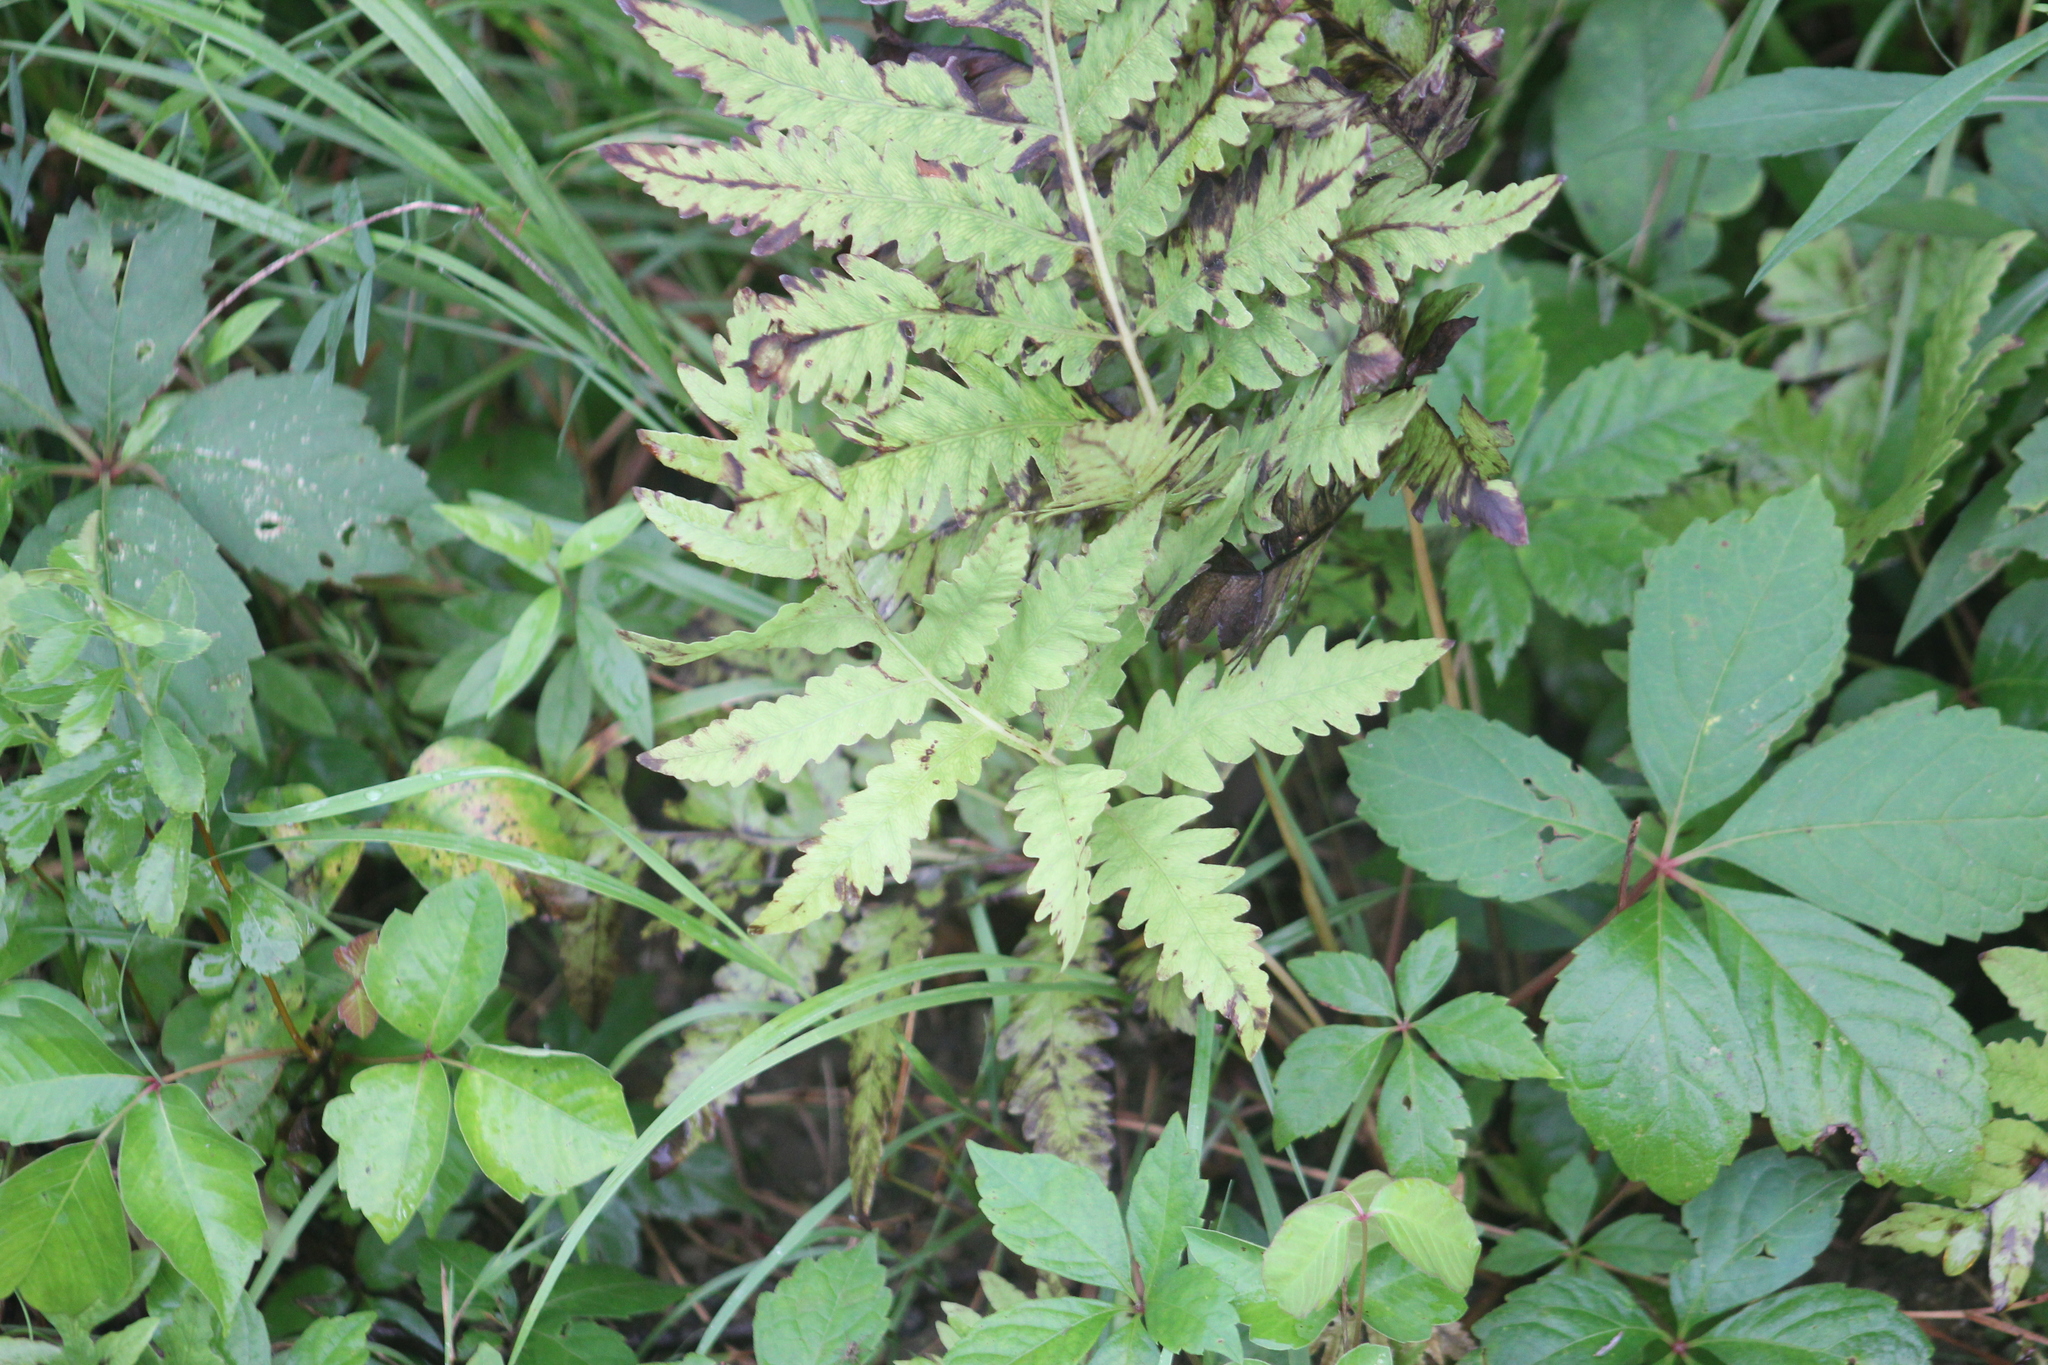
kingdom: Plantae
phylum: Tracheophyta
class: Polypodiopsida
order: Polypodiales
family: Onocleaceae
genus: Onoclea
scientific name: Onoclea sensibilis
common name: Sensitive fern
